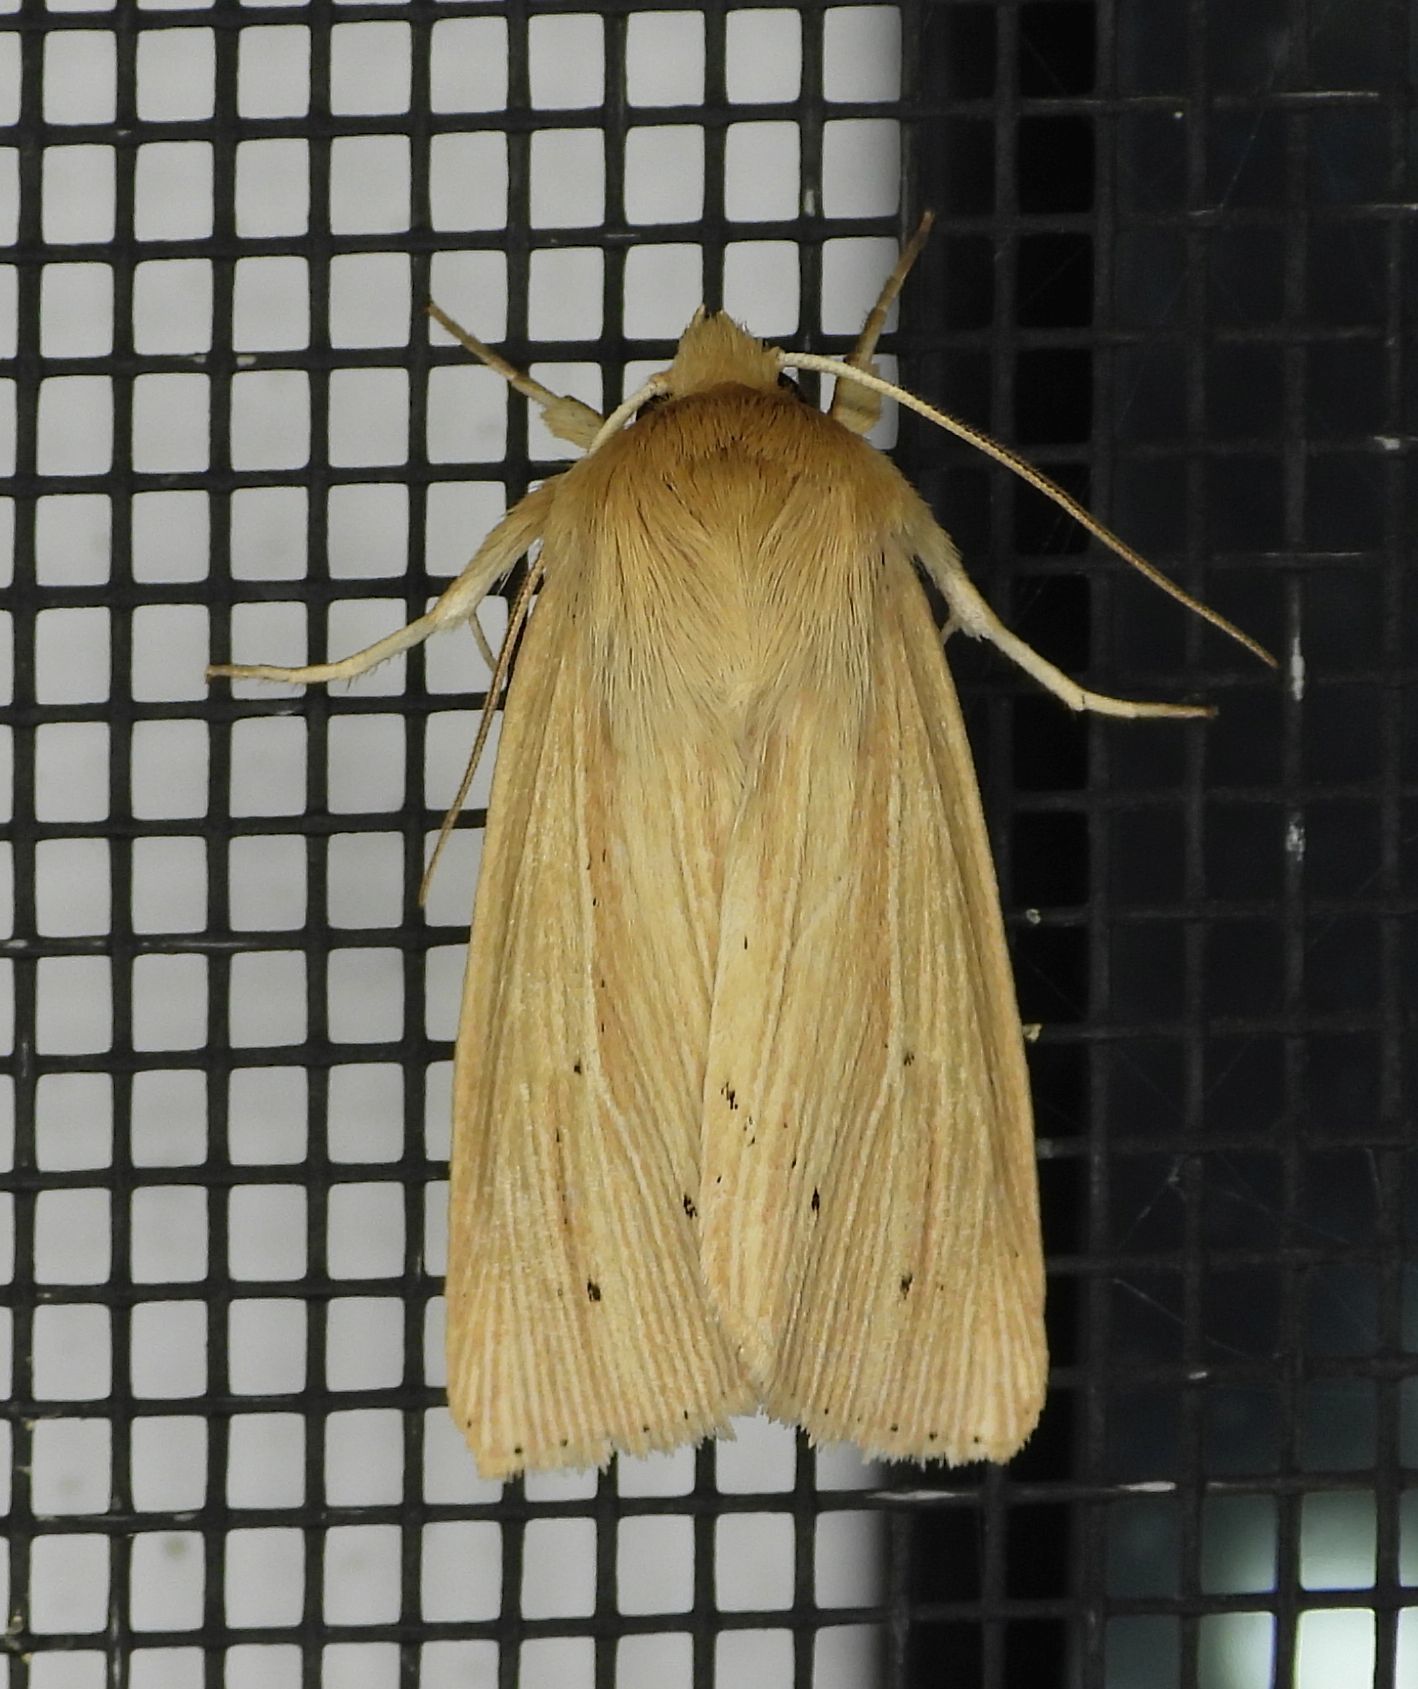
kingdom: Animalia
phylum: Arthropoda
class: Insecta
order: Lepidoptera
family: Noctuidae
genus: Mythimna
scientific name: Mythimna oxygala
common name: Lesser wainscot
